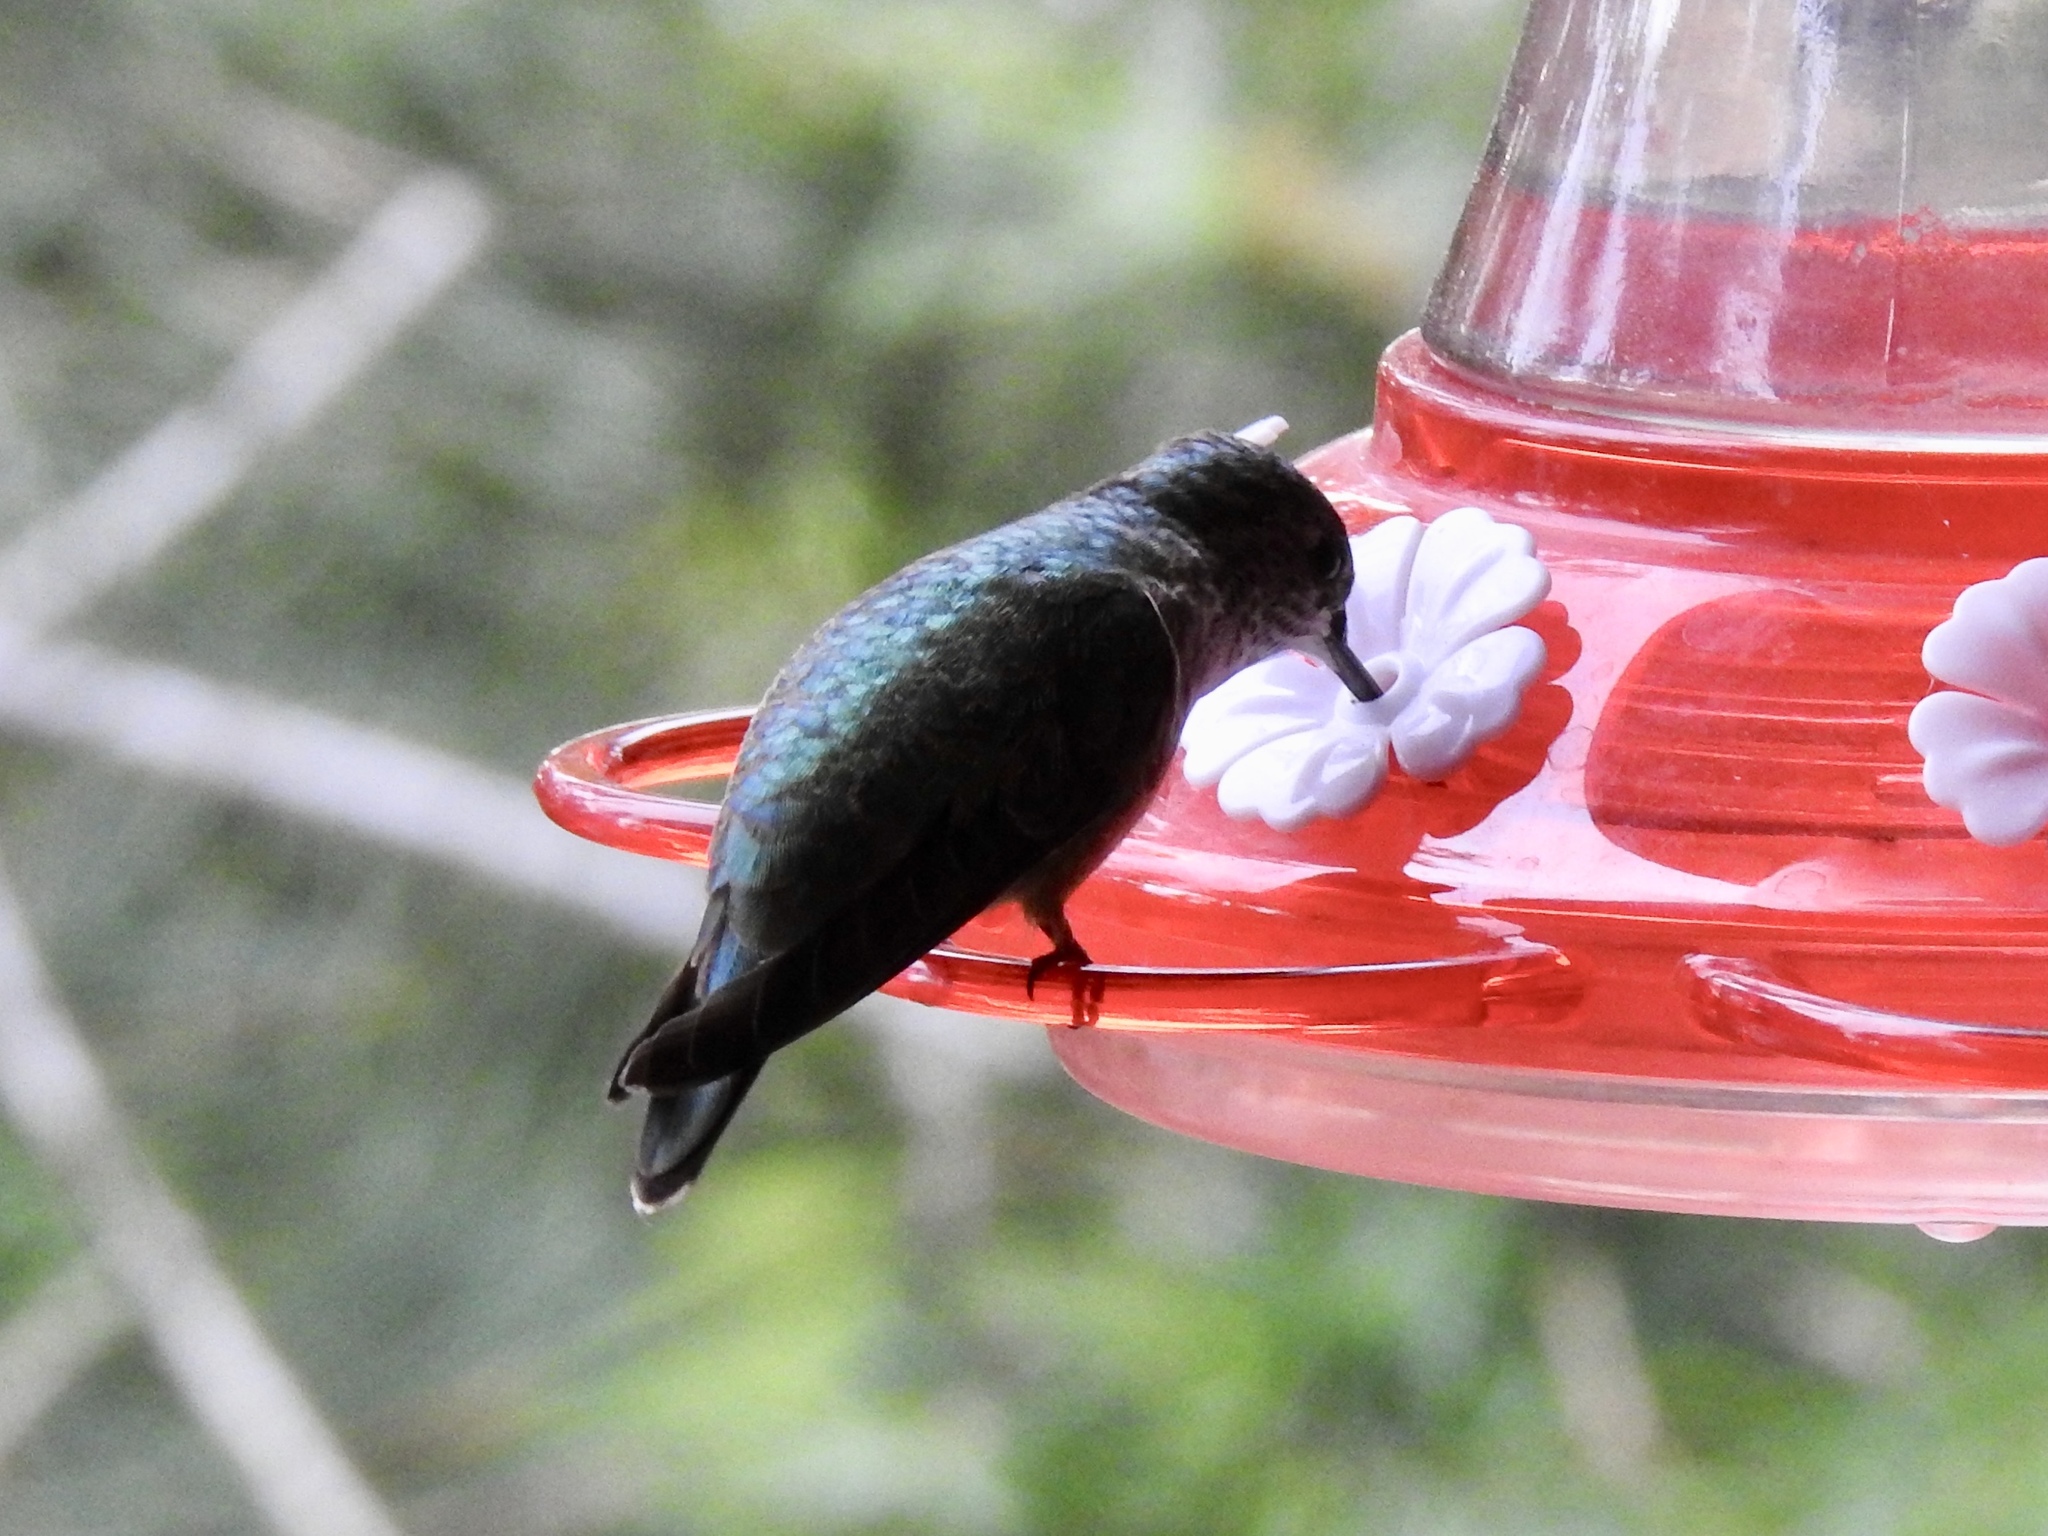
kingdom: Animalia
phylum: Chordata
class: Aves
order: Apodiformes
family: Trochilidae
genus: Selasphorus
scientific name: Selasphorus platycercus
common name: Broad-tailed hummingbird
